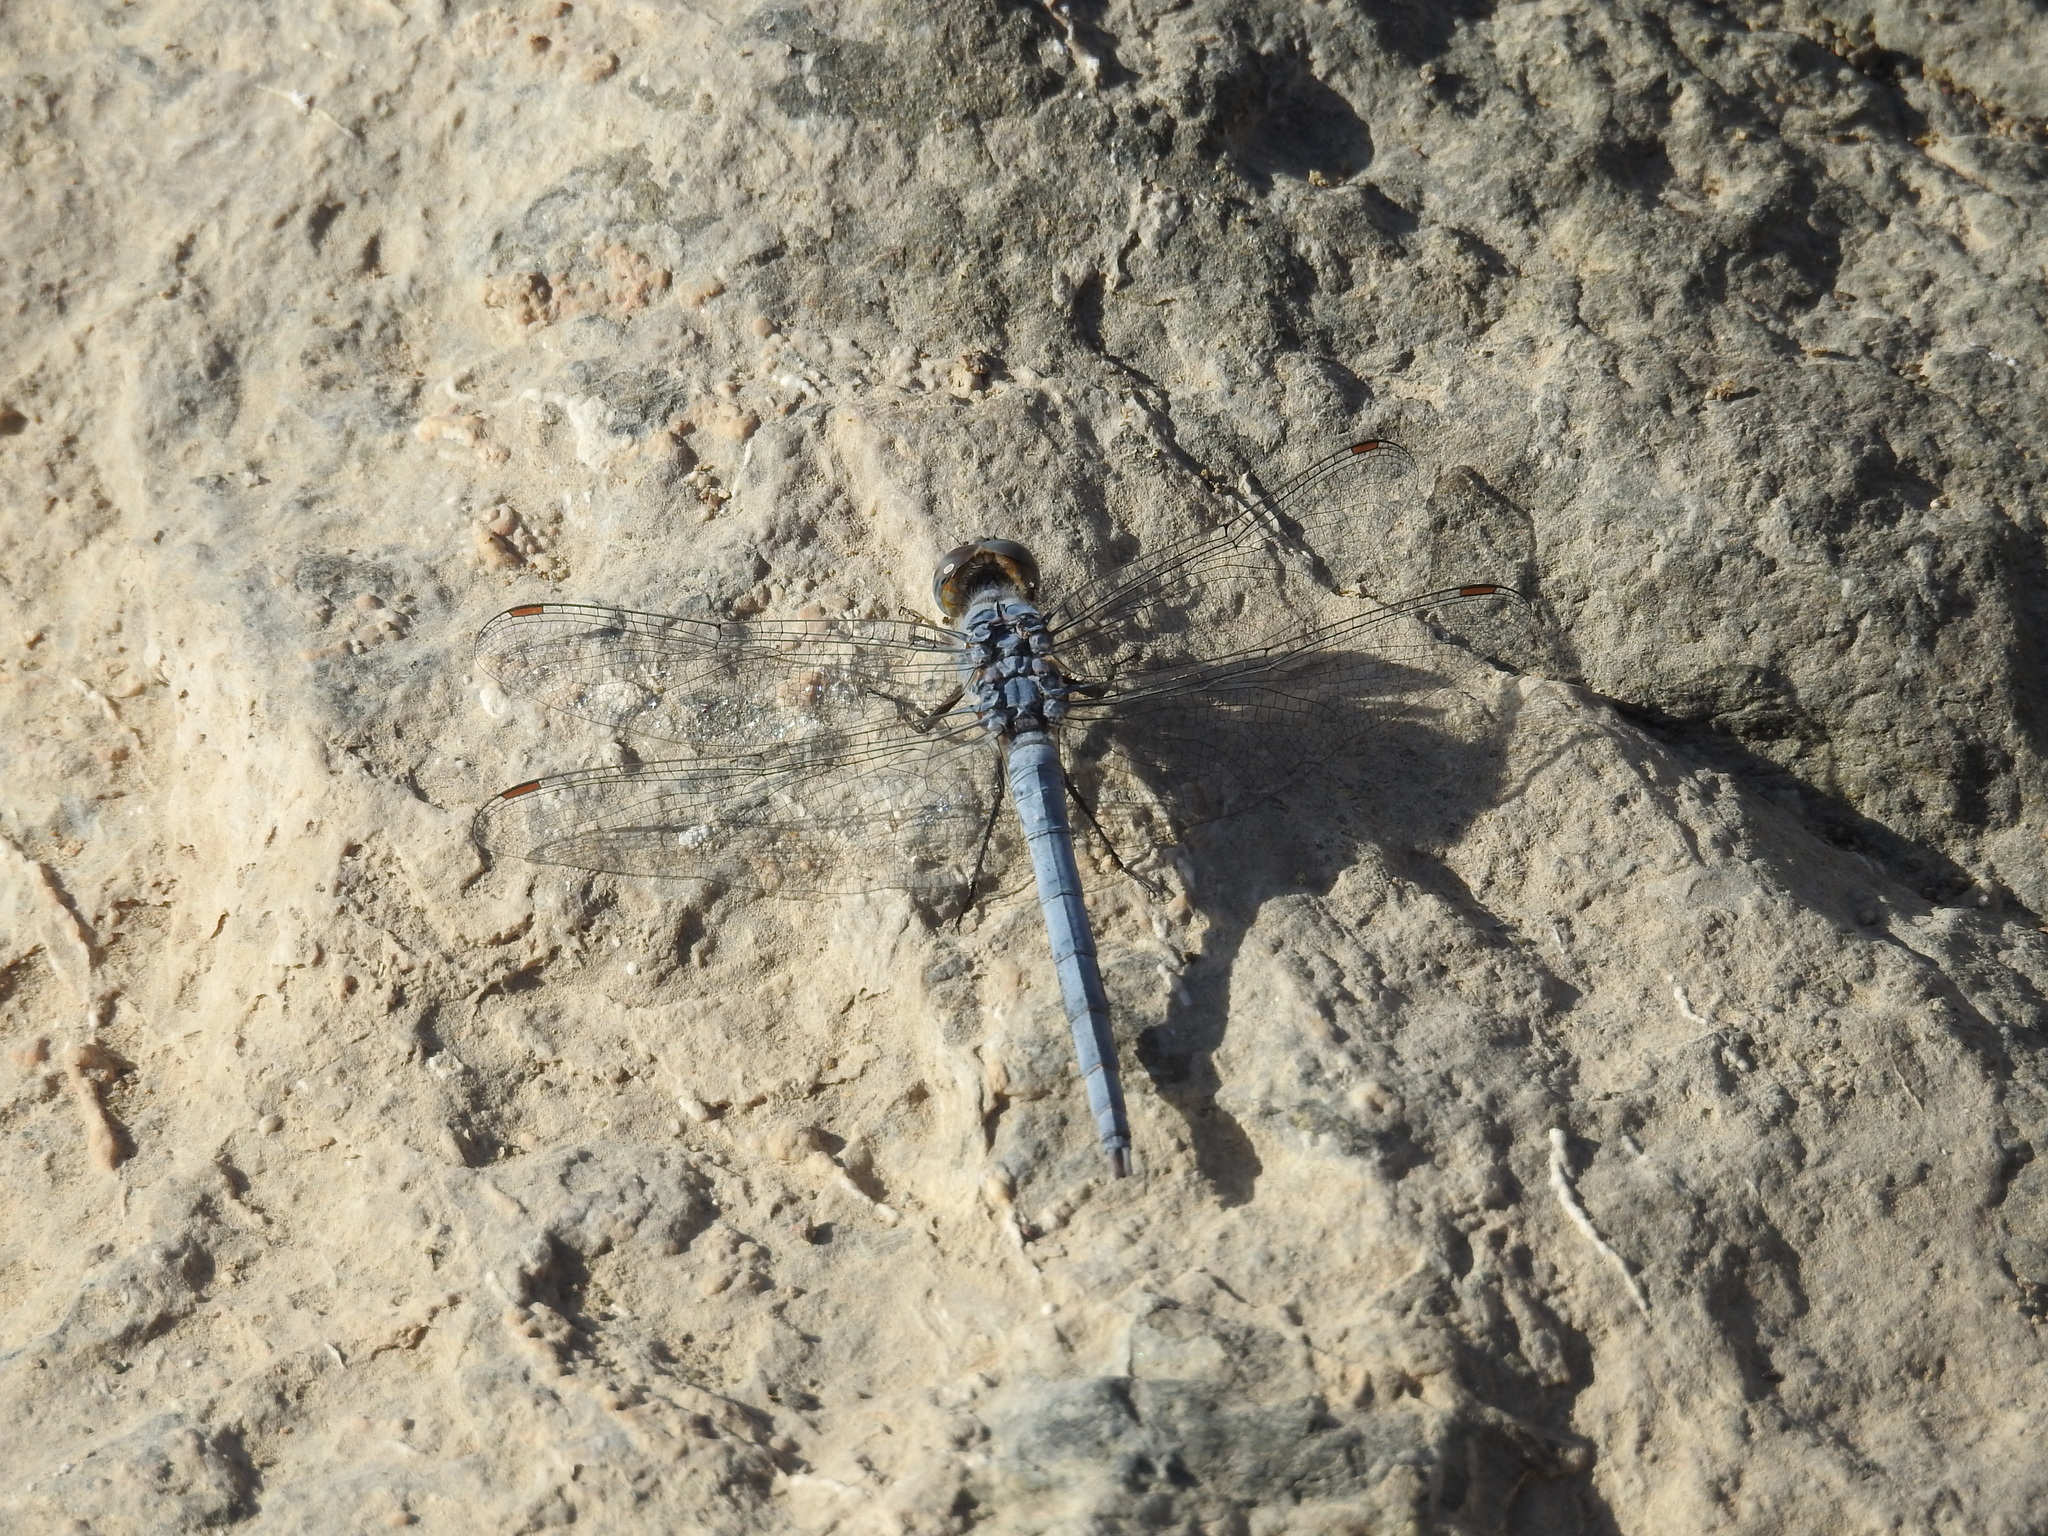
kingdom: Animalia
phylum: Arthropoda
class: Insecta
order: Odonata
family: Libellulidae
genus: Orthetrum
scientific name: Orthetrum ransonnetii
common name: Desert skimmer
